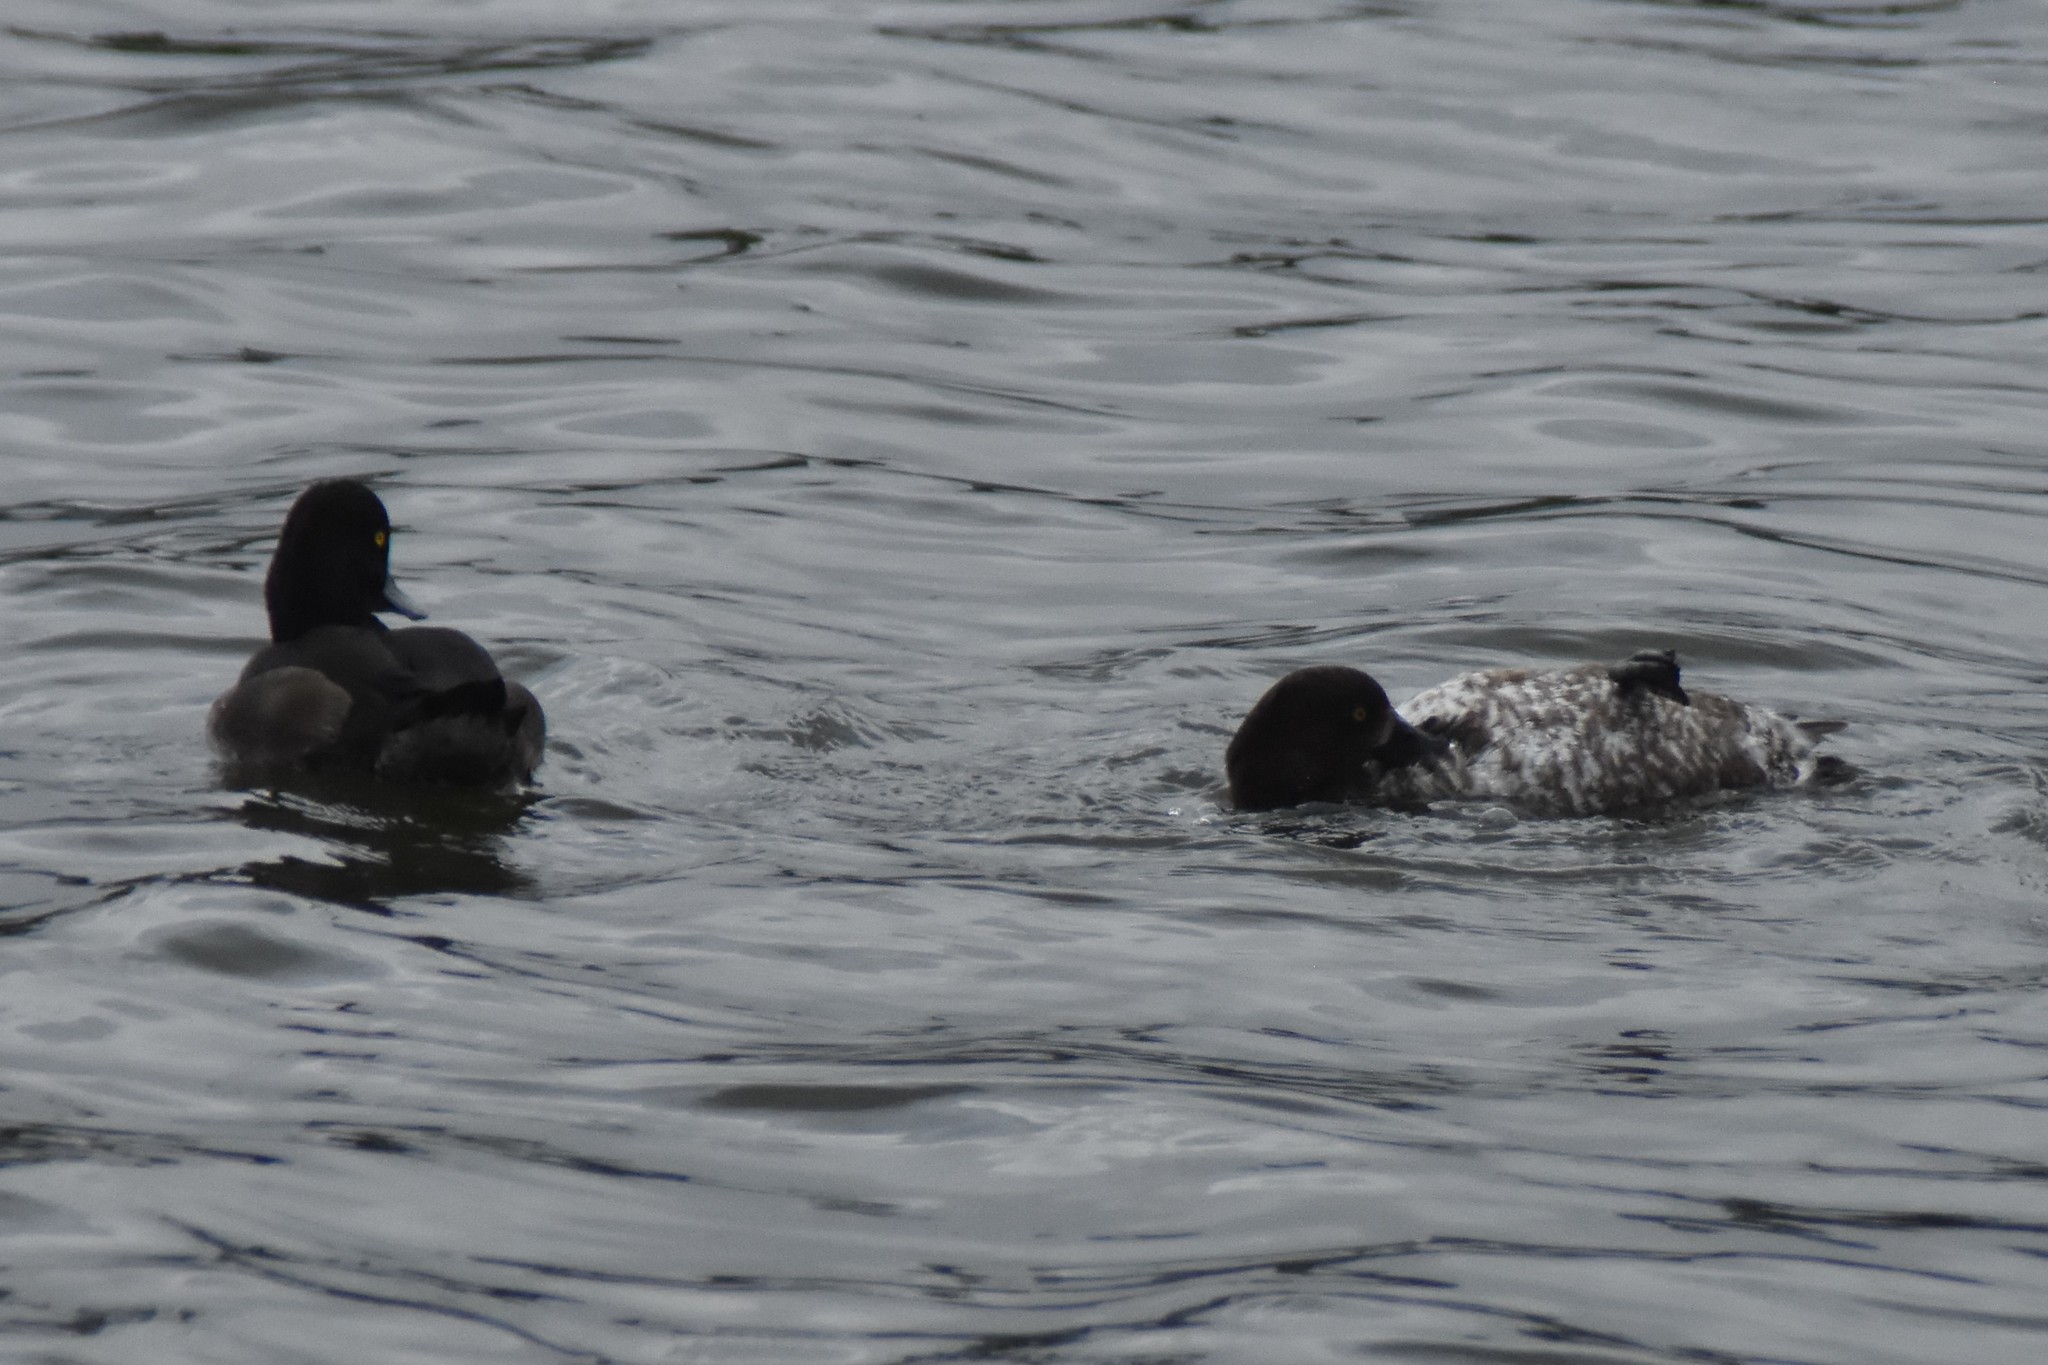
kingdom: Animalia
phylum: Chordata
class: Aves
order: Anseriformes
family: Anatidae
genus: Aythya
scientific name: Aythya fuligula
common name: Tufted duck
